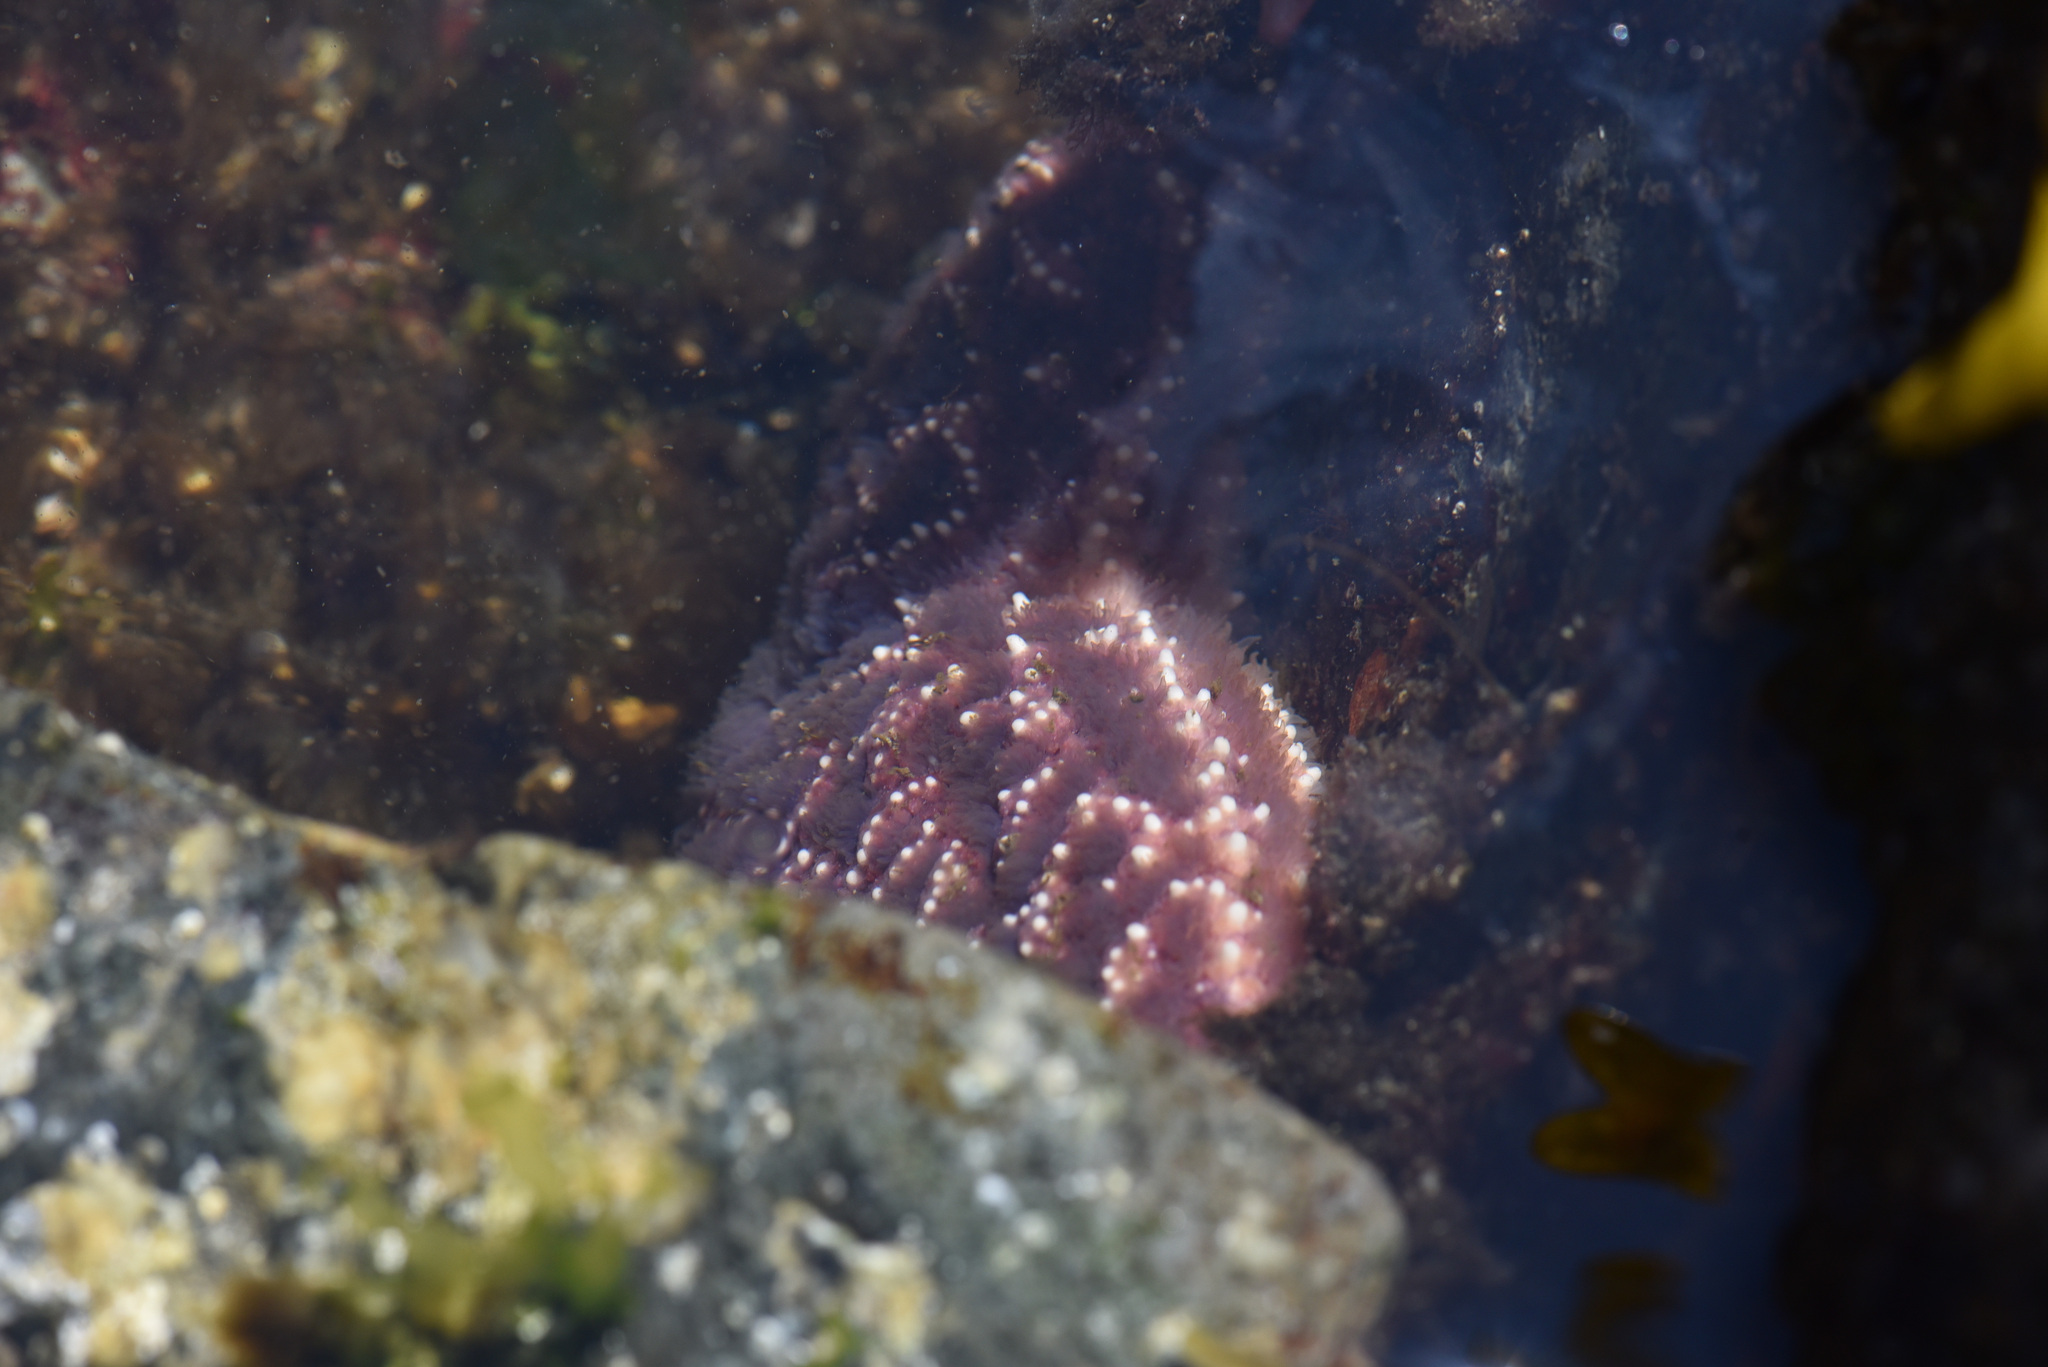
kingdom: Animalia
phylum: Echinodermata
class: Asteroidea
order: Forcipulatida
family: Asteriidae
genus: Pisaster
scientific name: Pisaster ochraceus
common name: Ochre stars
